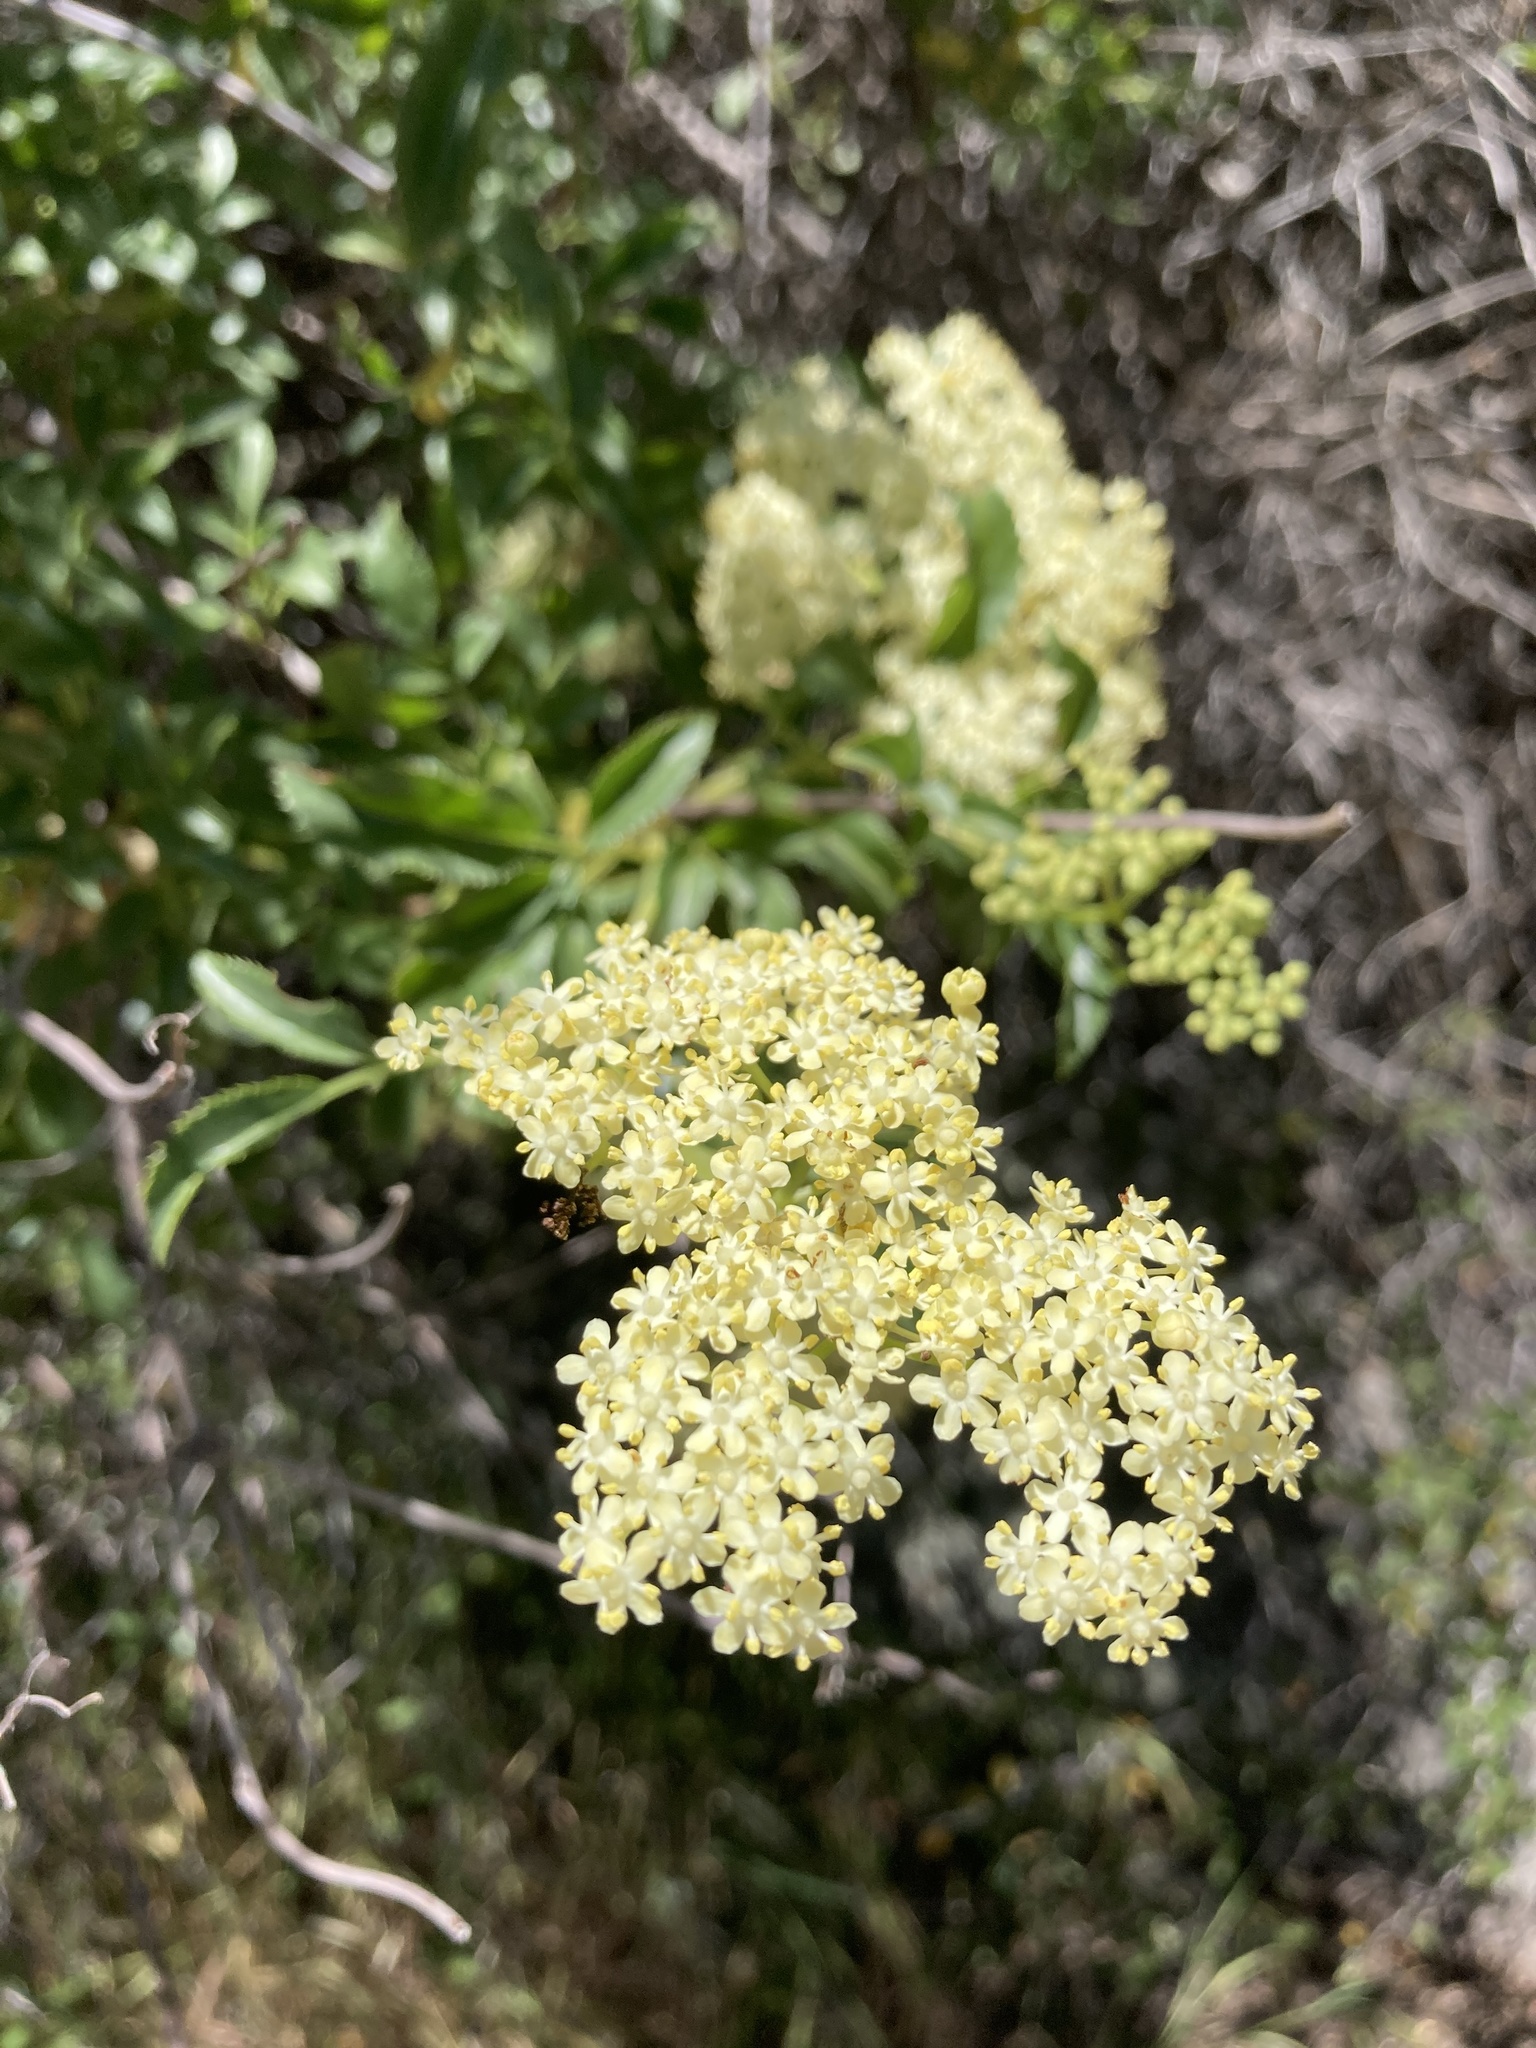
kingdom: Plantae
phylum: Tracheophyta
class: Magnoliopsida
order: Dipsacales
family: Viburnaceae
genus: Sambucus
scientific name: Sambucus cerulea
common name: Blue elder
